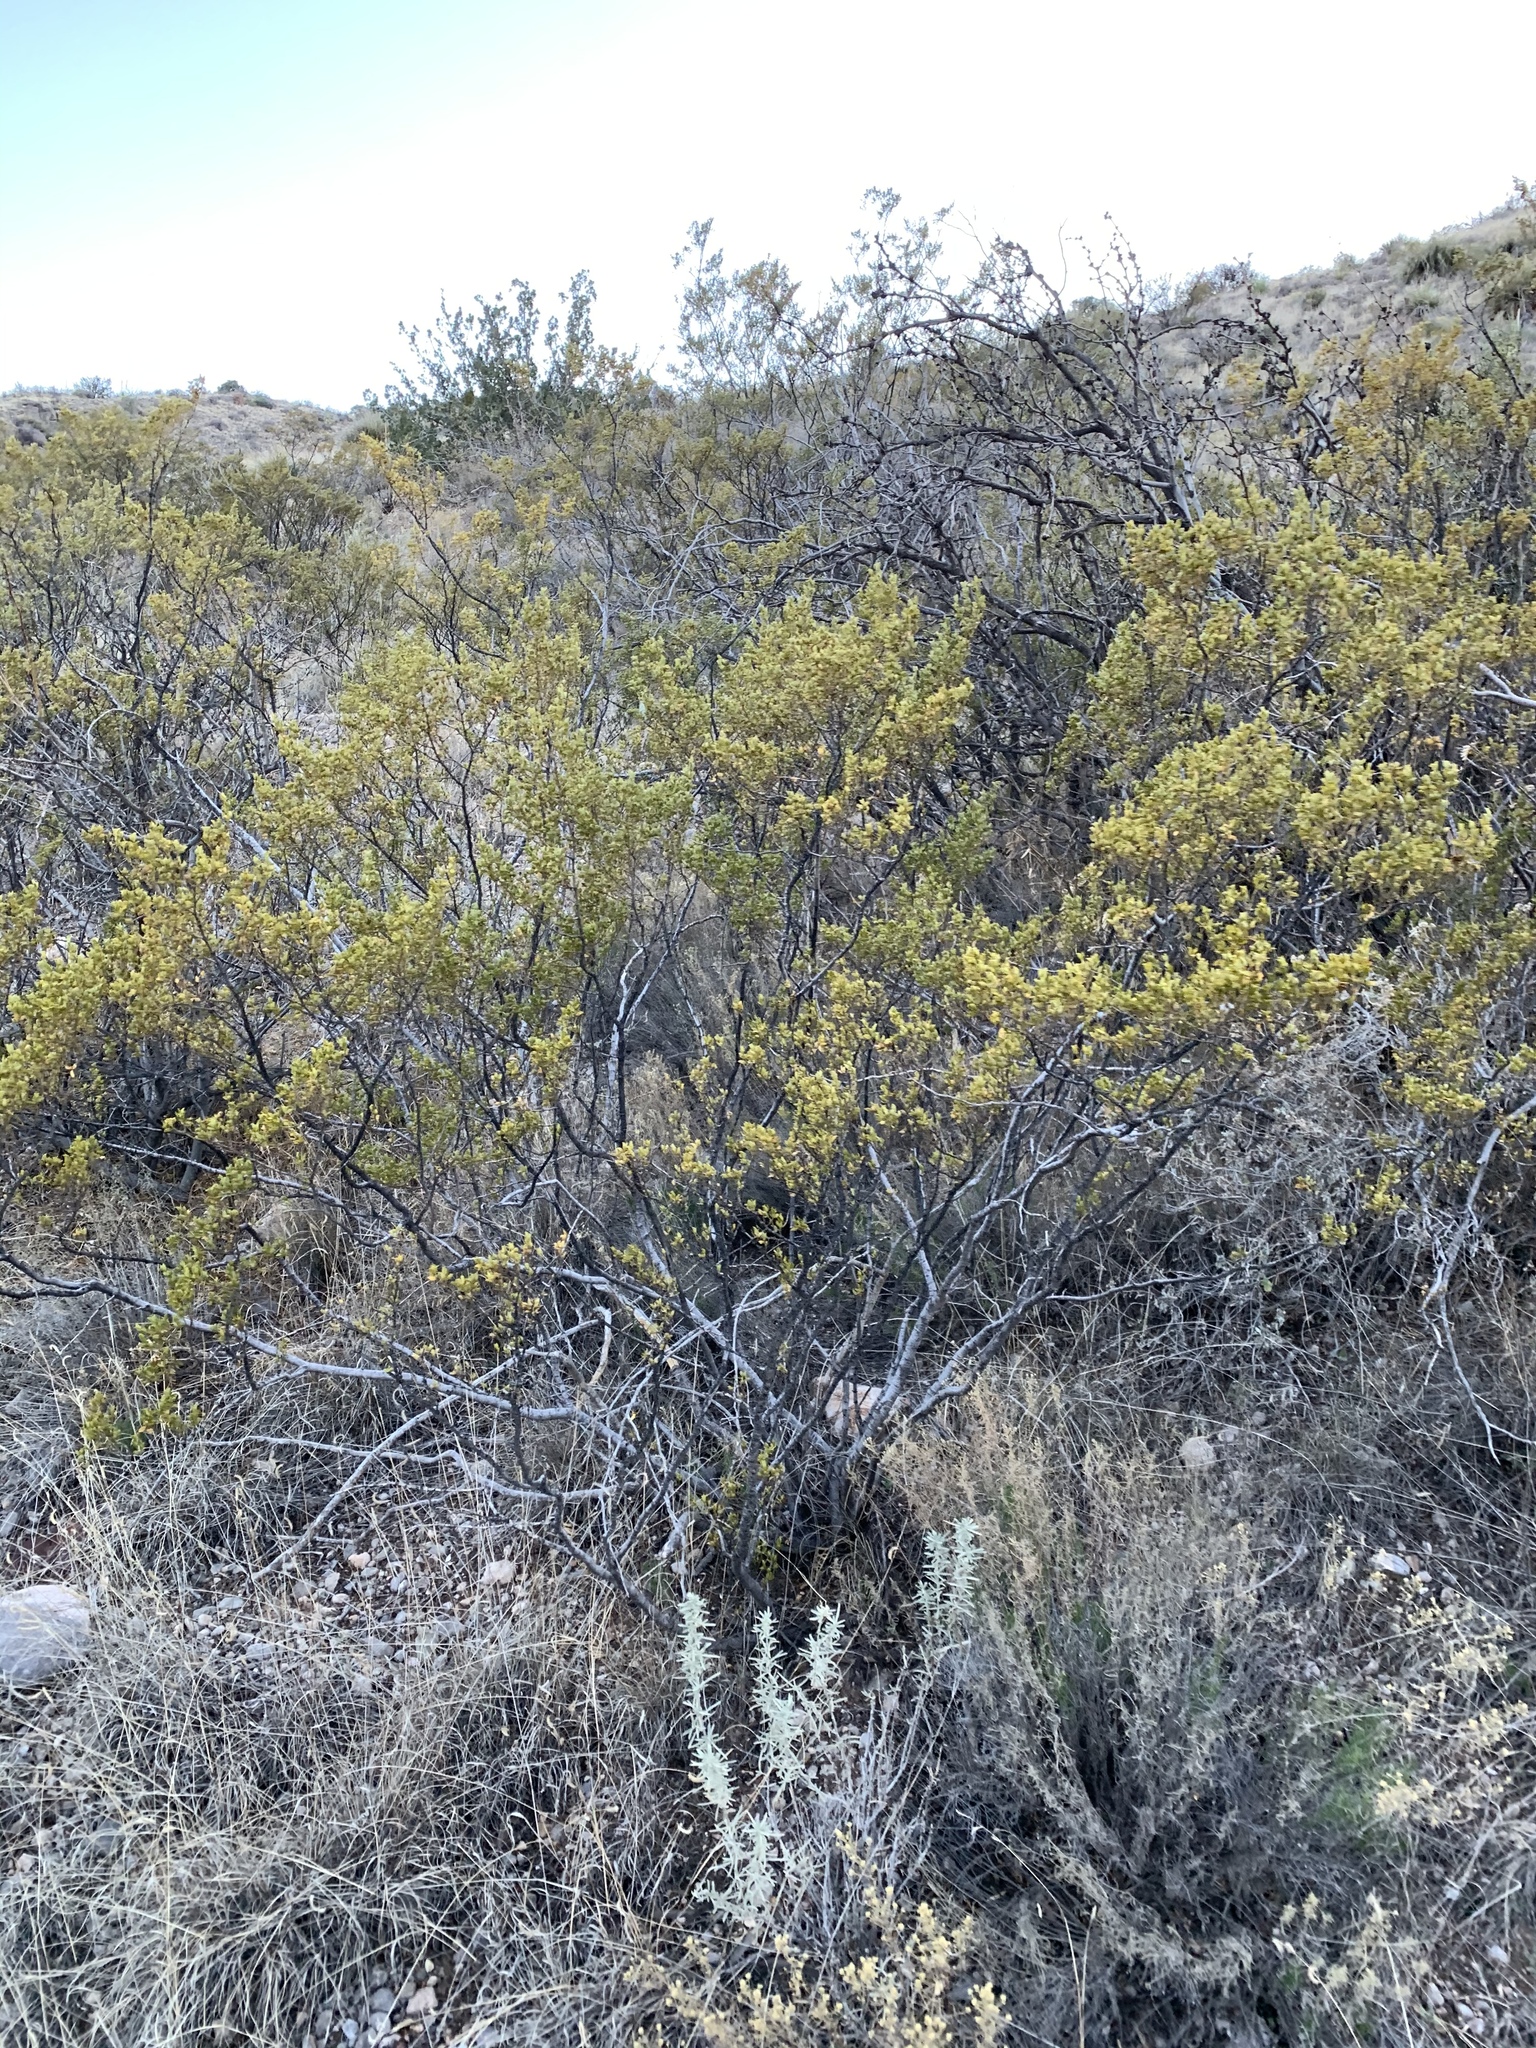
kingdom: Plantae
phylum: Tracheophyta
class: Magnoliopsida
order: Zygophyllales
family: Zygophyllaceae
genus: Larrea
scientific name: Larrea tridentata
